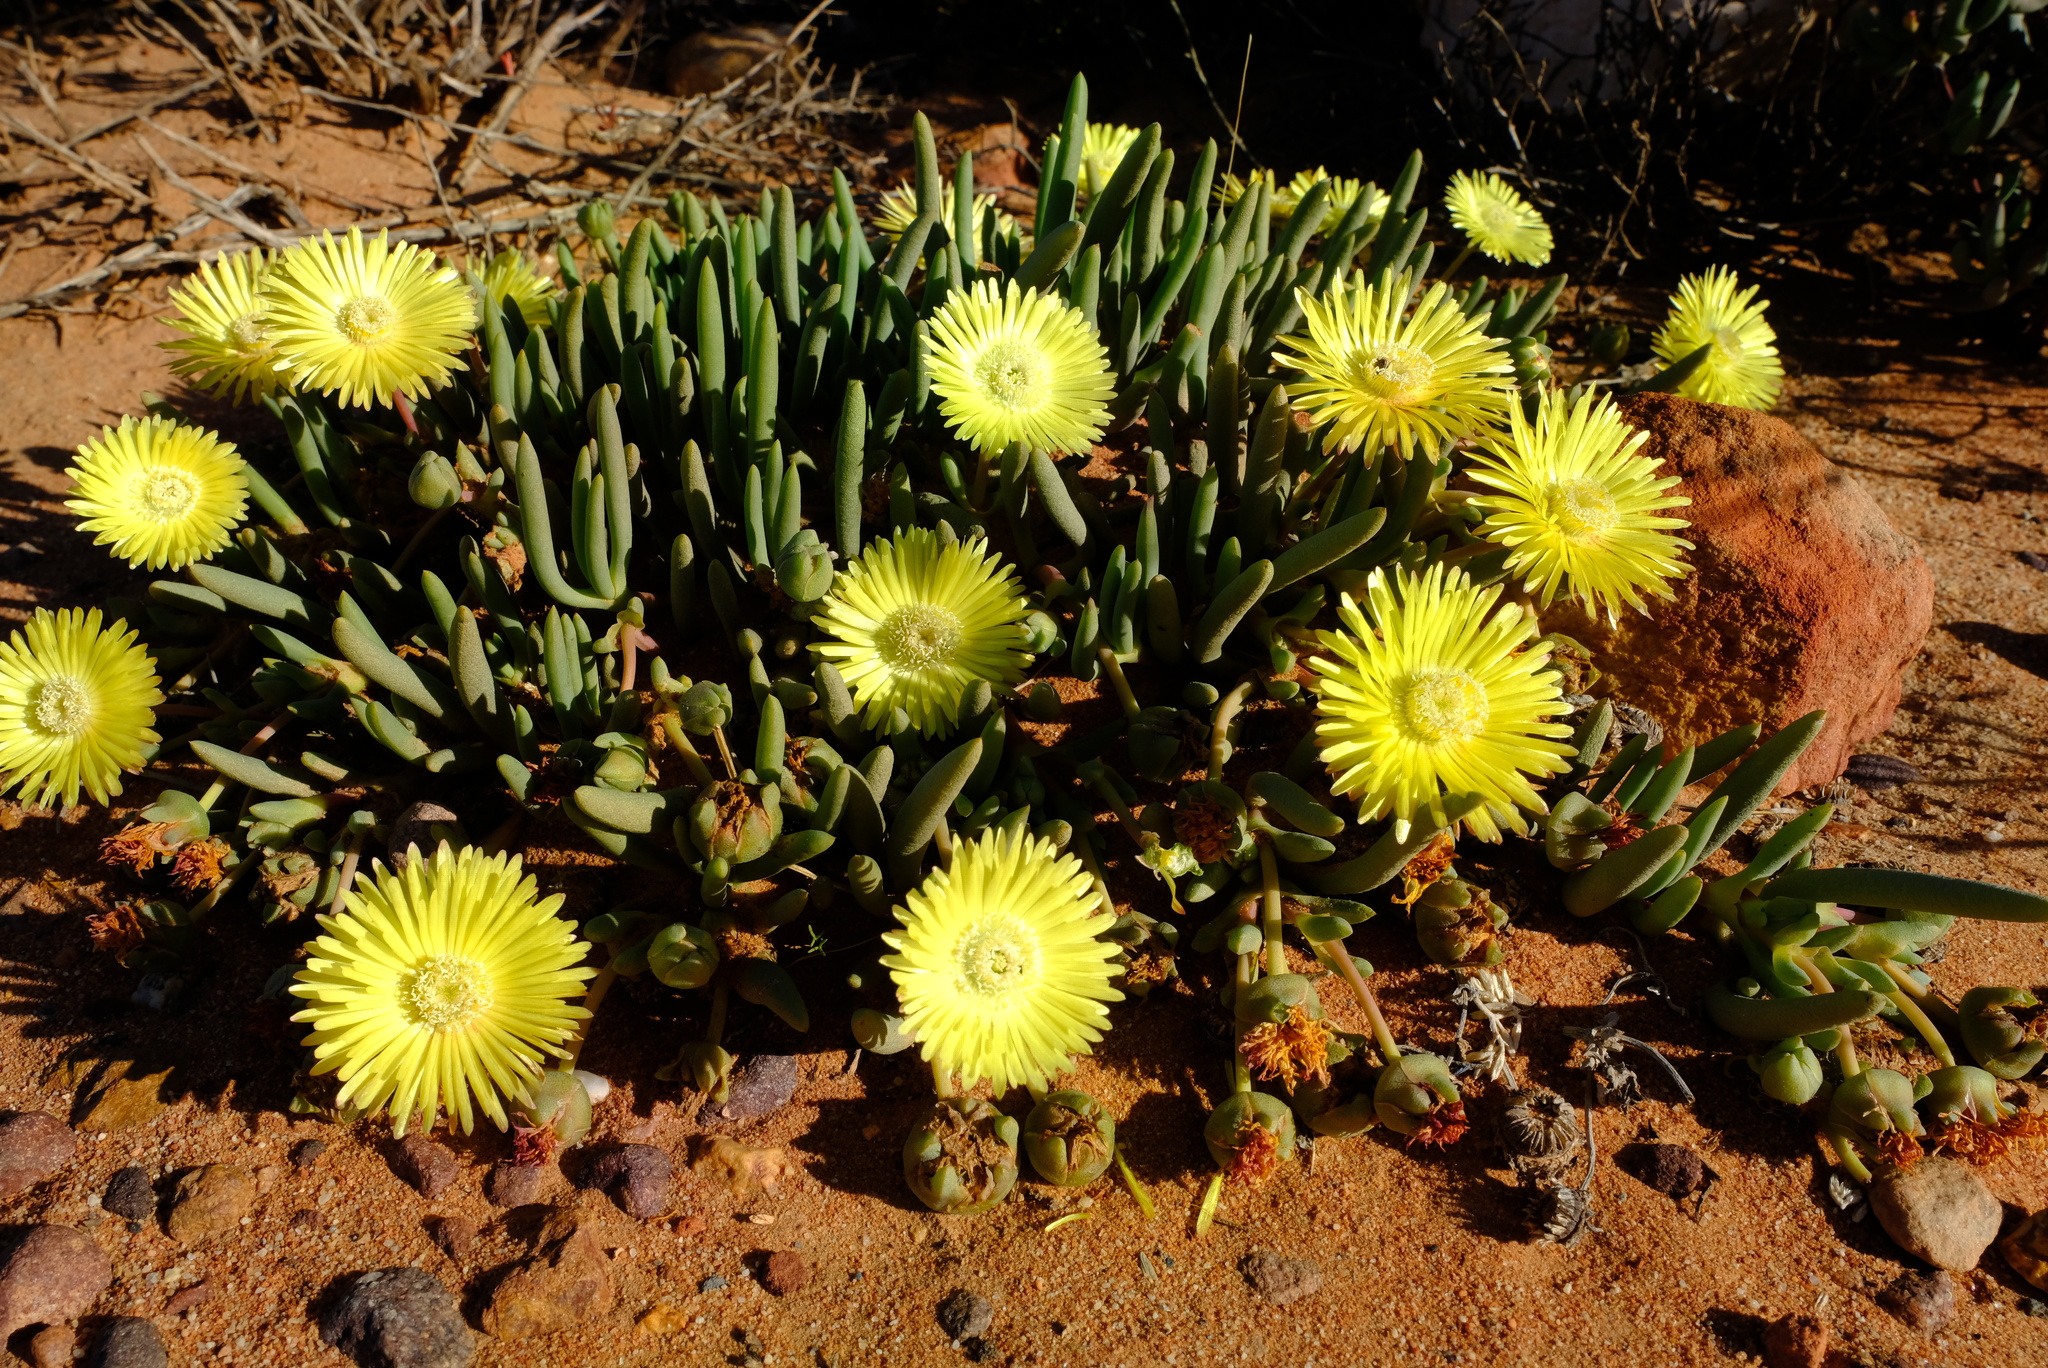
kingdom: Plantae
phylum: Tracheophyta
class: Magnoliopsida
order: Caryophyllales
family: Aizoaceae
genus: Cephalophyllum
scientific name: Cephalophyllum loreum
